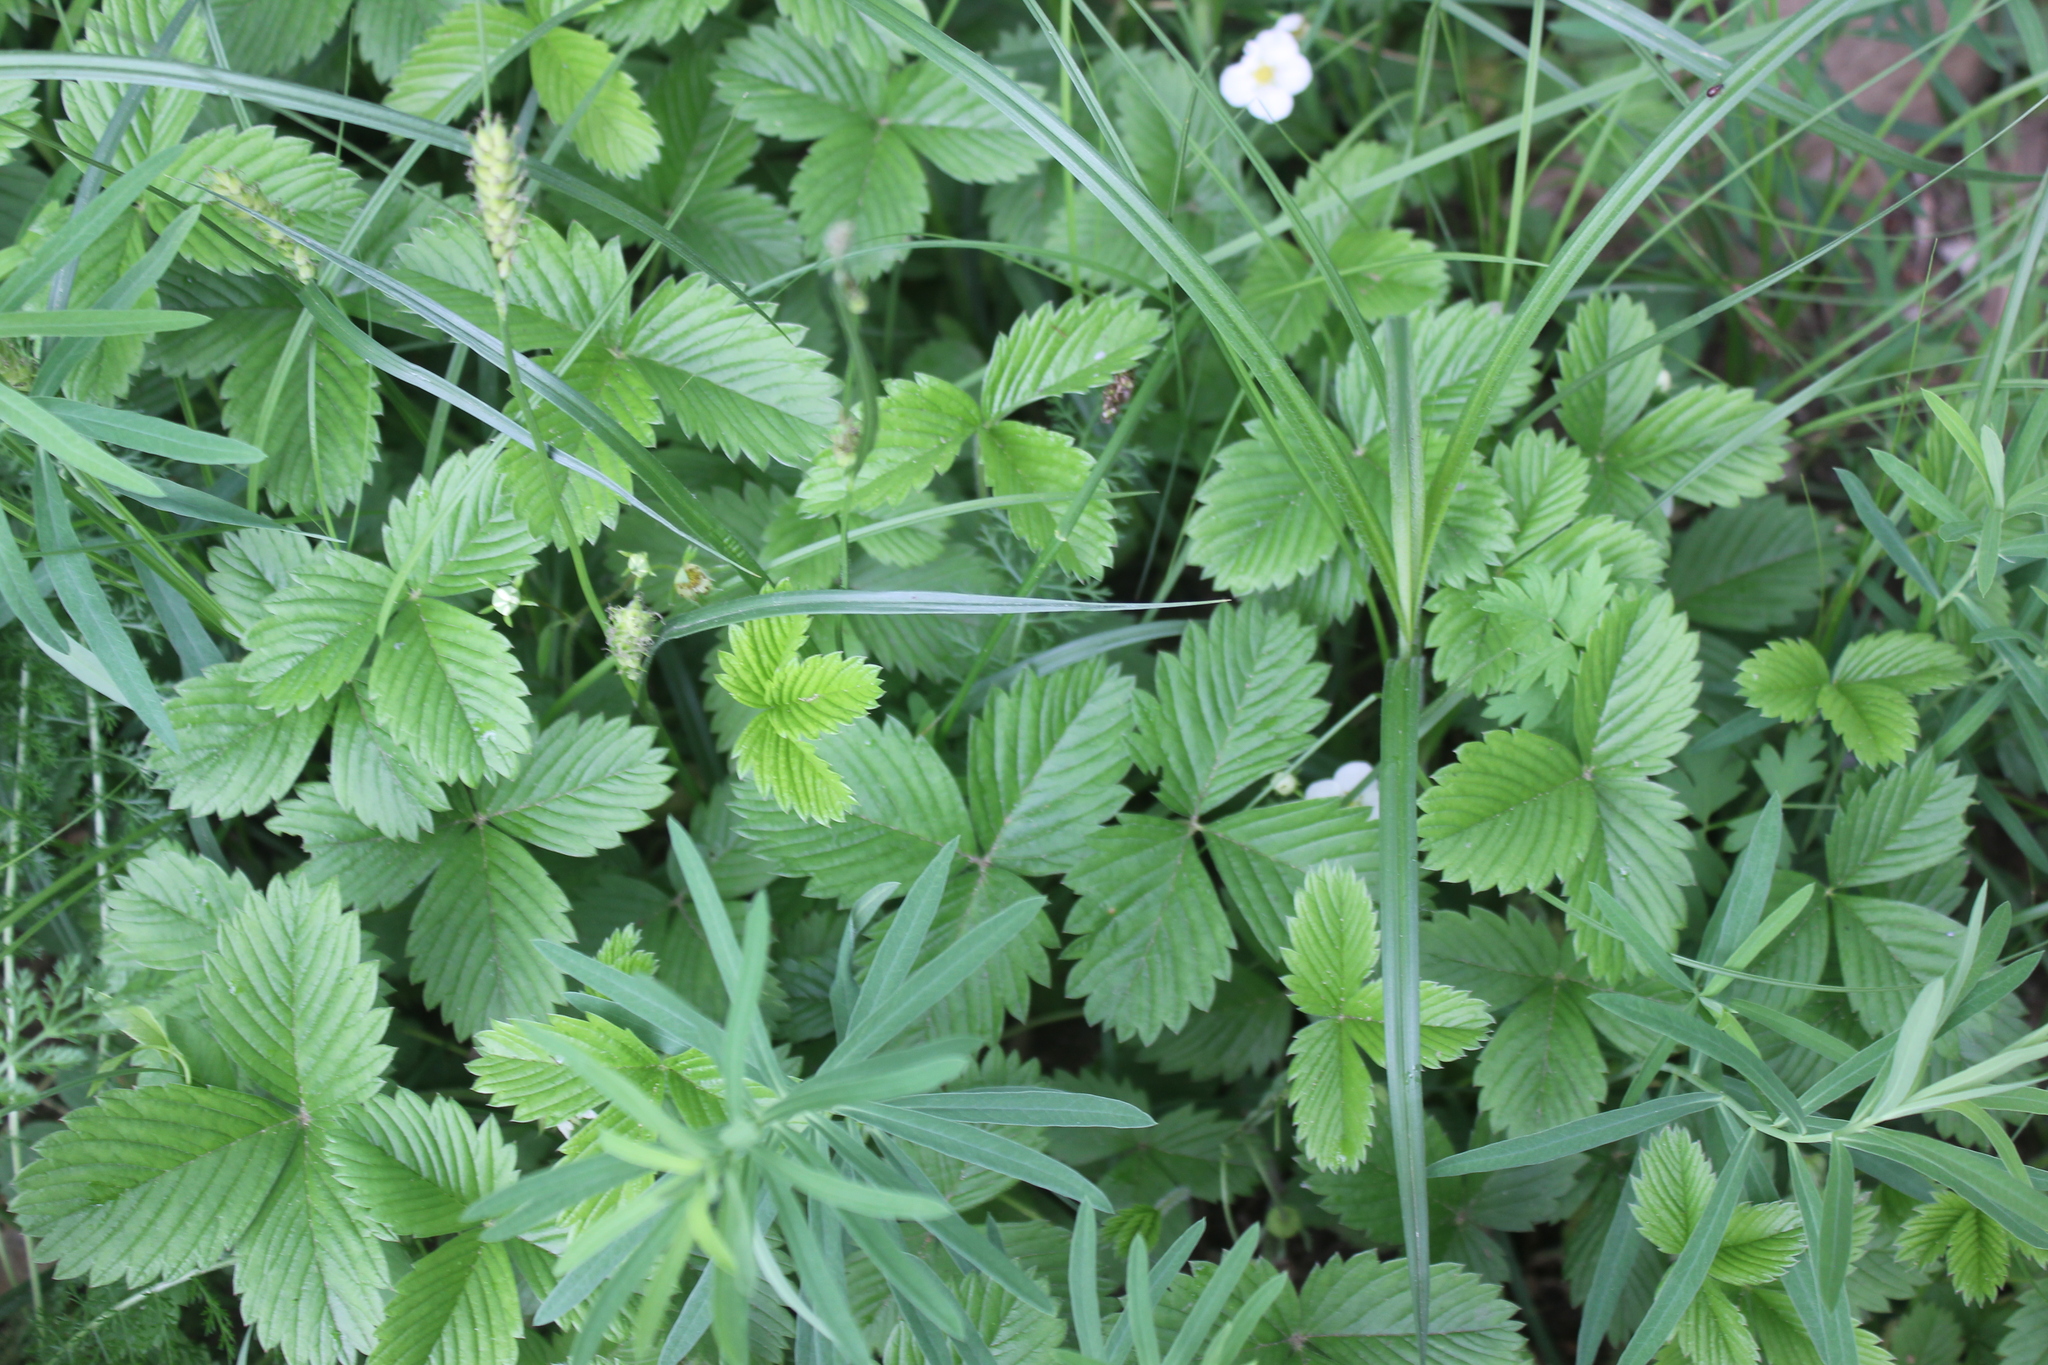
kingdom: Plantae
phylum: Tracheophyta
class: Magnoliopsida
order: Rosales
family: Rosaceae
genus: Fragaria
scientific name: Fragaria viridis
